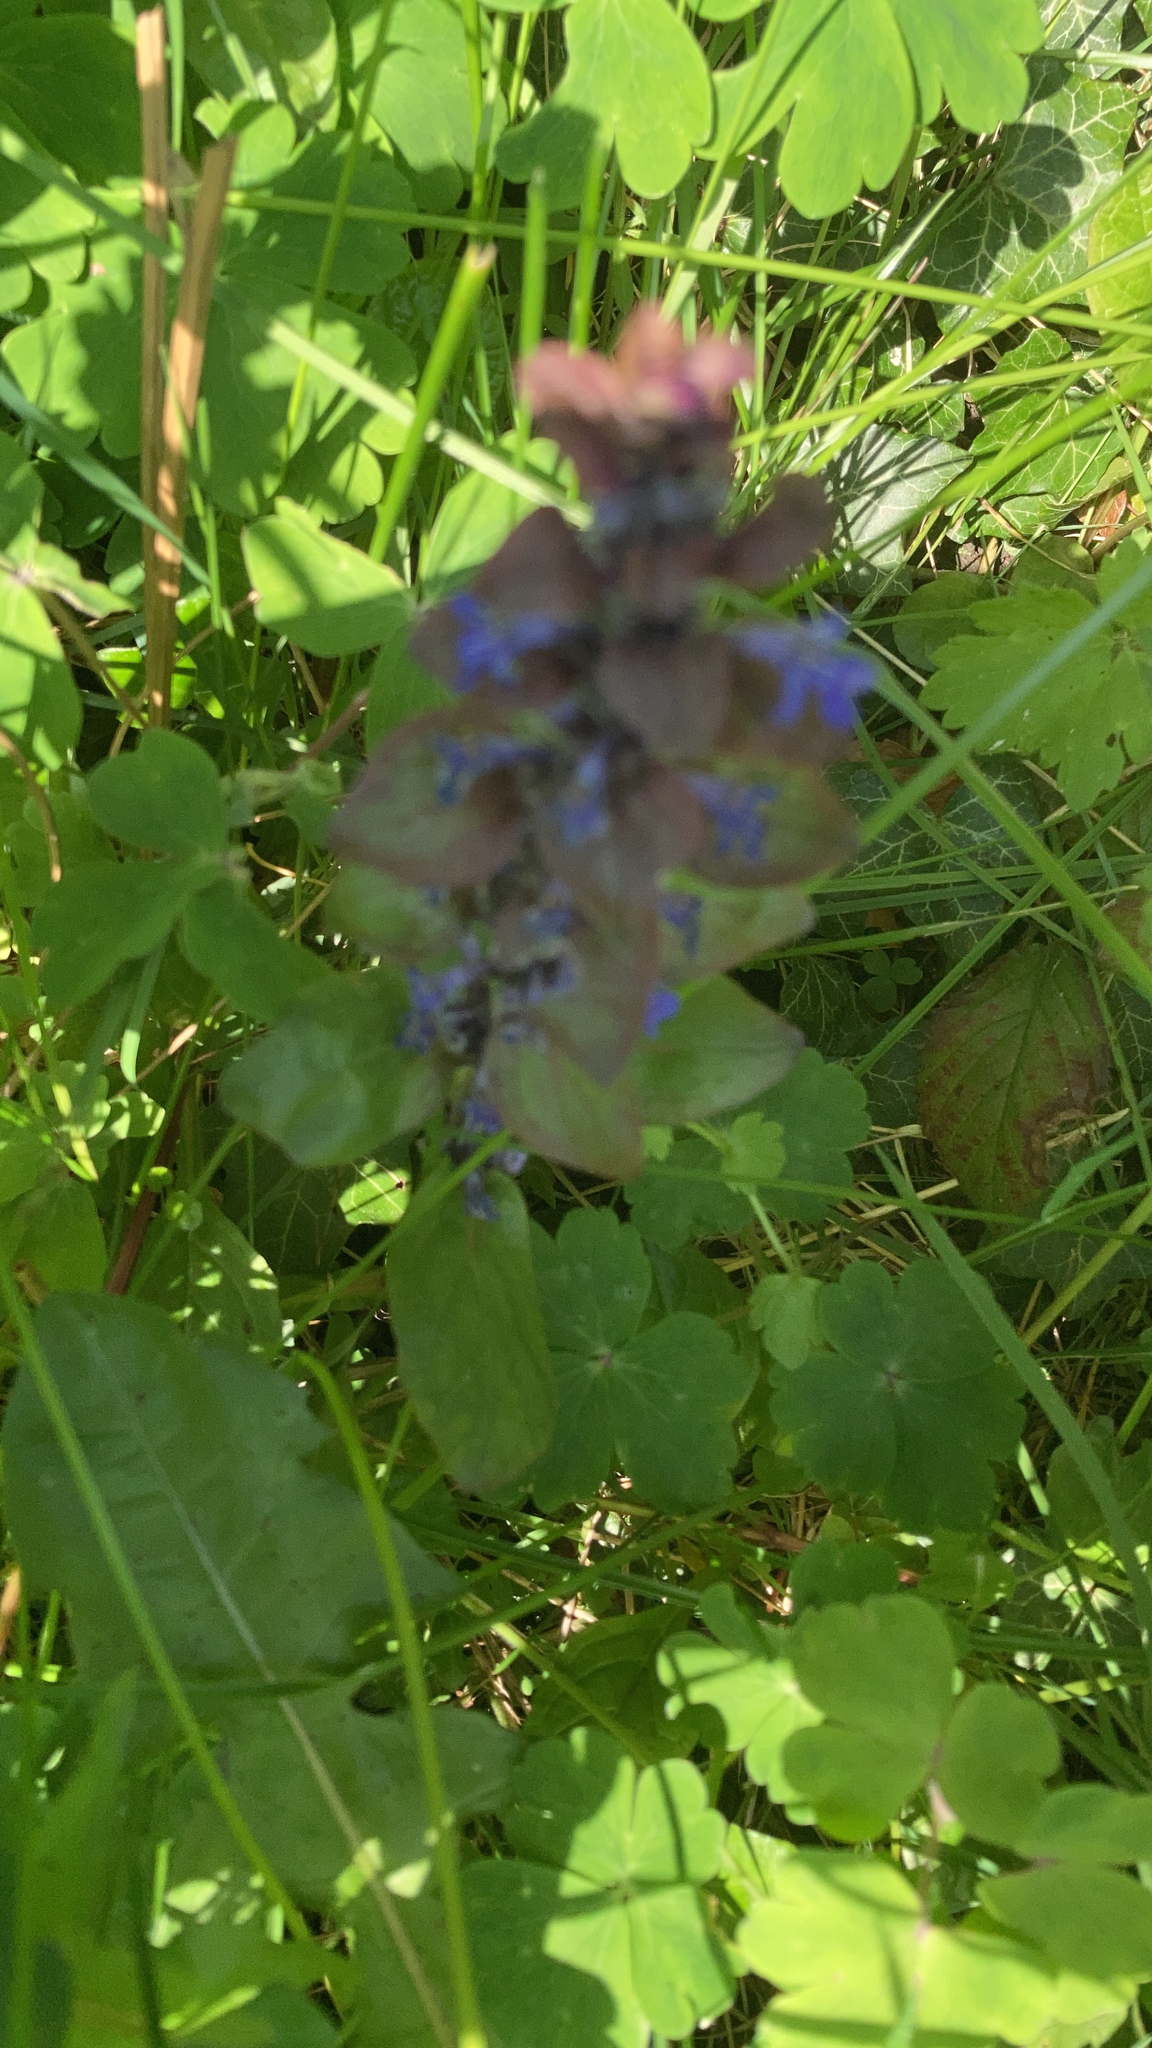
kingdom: Plantae
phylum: Tracheophyta
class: Magnoliopsida
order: Lamiales
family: Lamiaceae
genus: Ajuga
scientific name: Ajuga reptans
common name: Bugle
